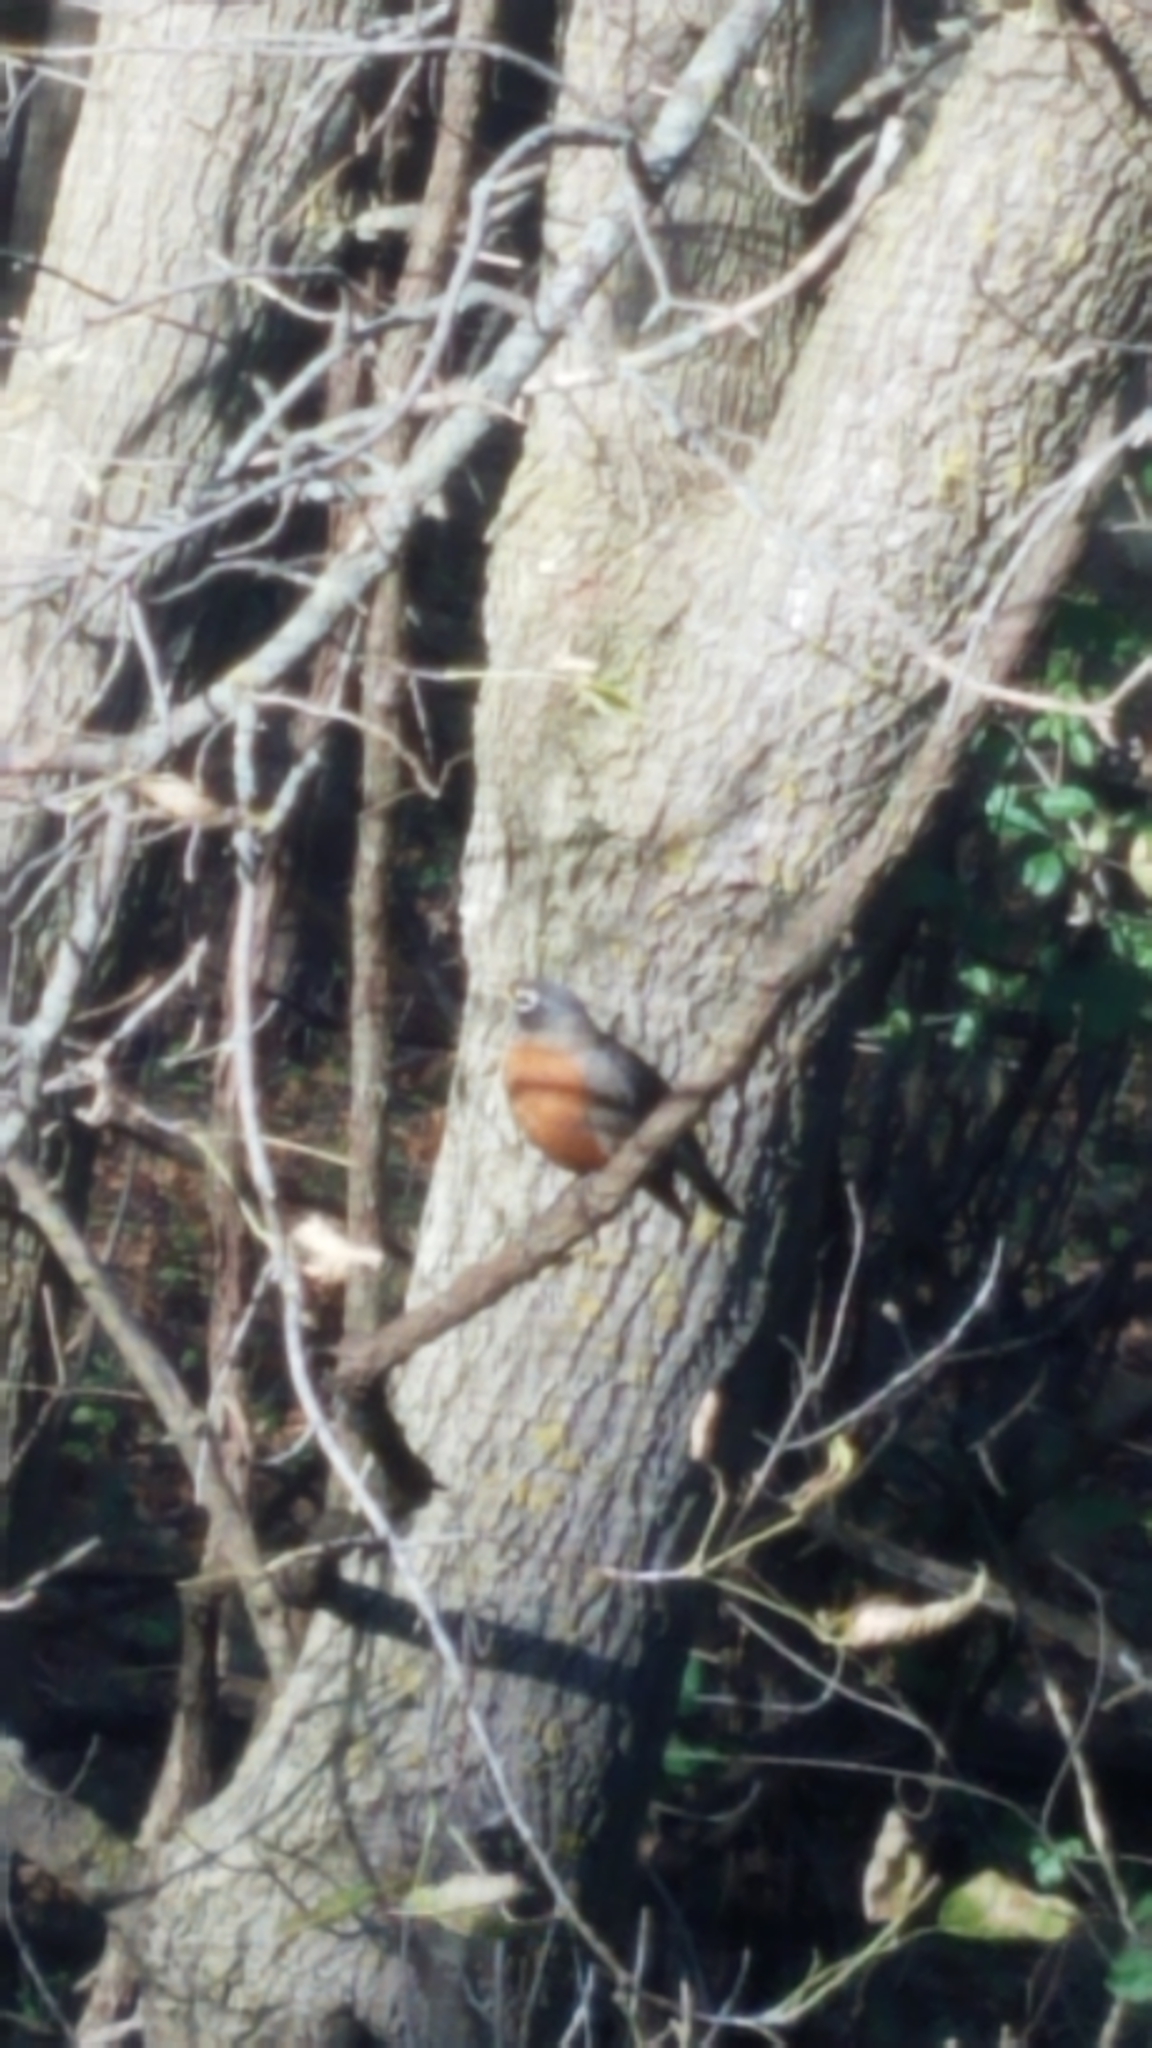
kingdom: Animalia
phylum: Chordata
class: Aves
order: Passeriformes
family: Turdidae
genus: Turdus
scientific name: Turdus migratorius
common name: American robin
